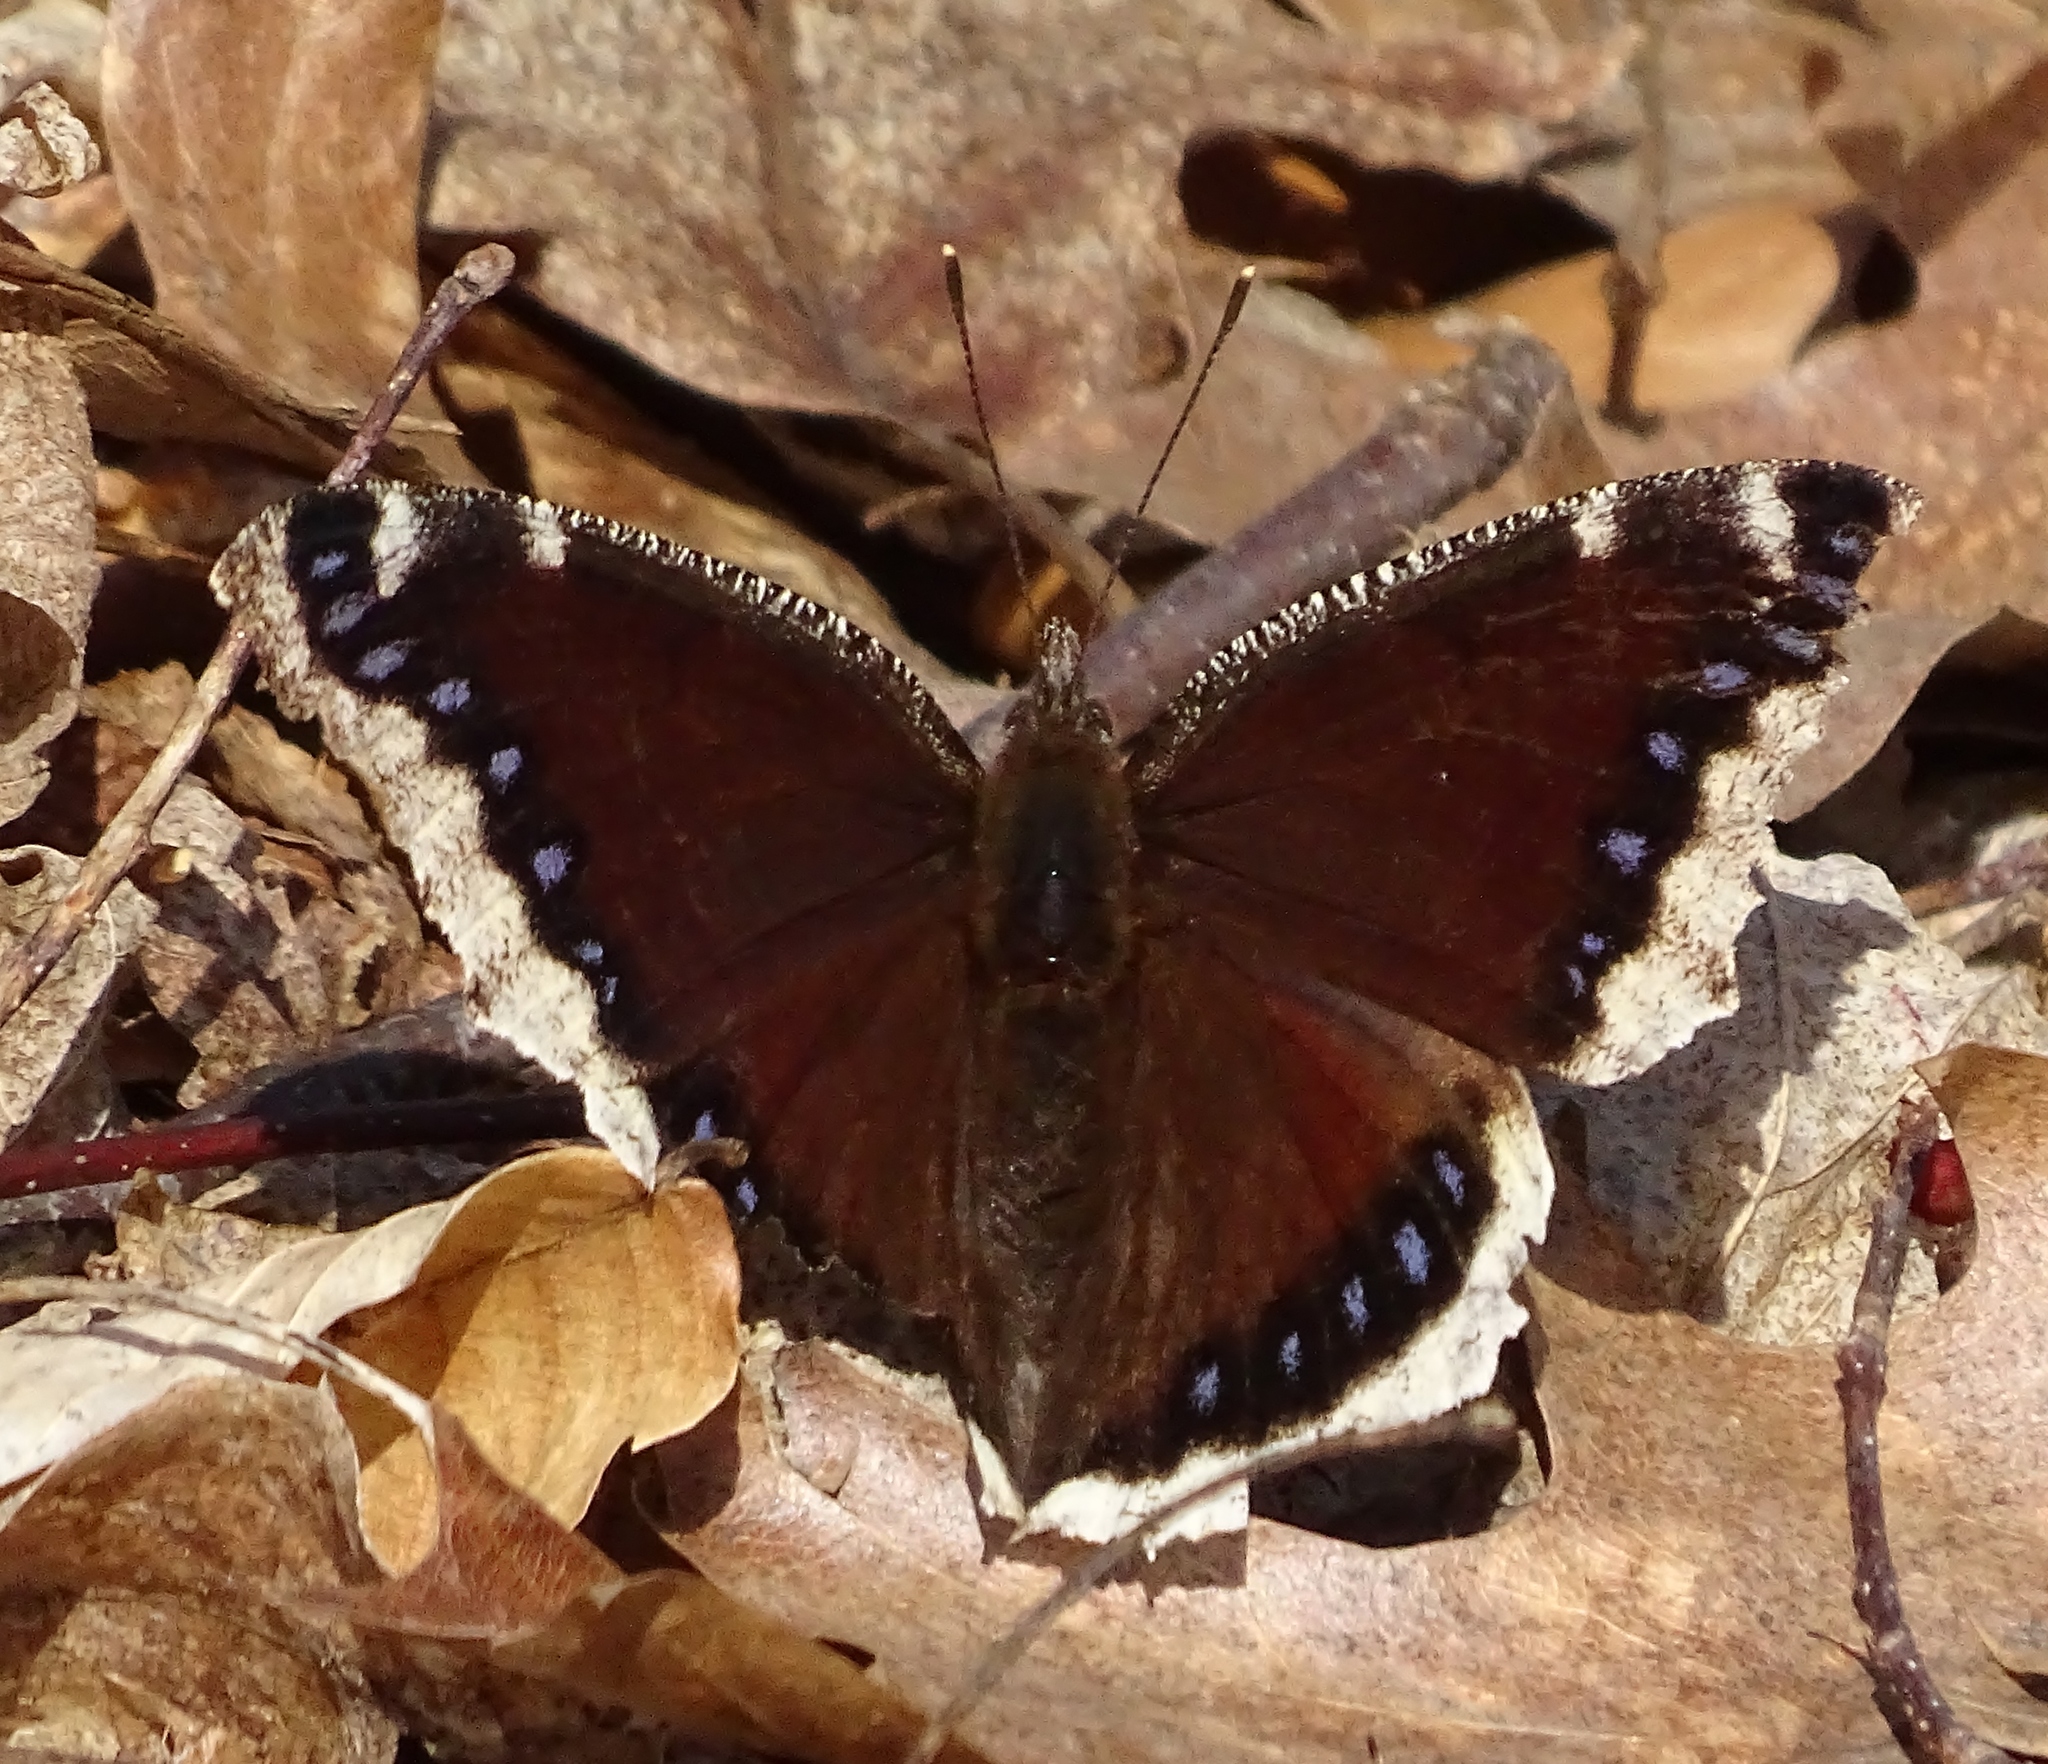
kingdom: Animalia
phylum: Arthropoda
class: Insecta
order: Lepidoptera
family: Nymphalidae
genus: Nymphalis
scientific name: Nymphalis antiopa
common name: Camberwell beauty
